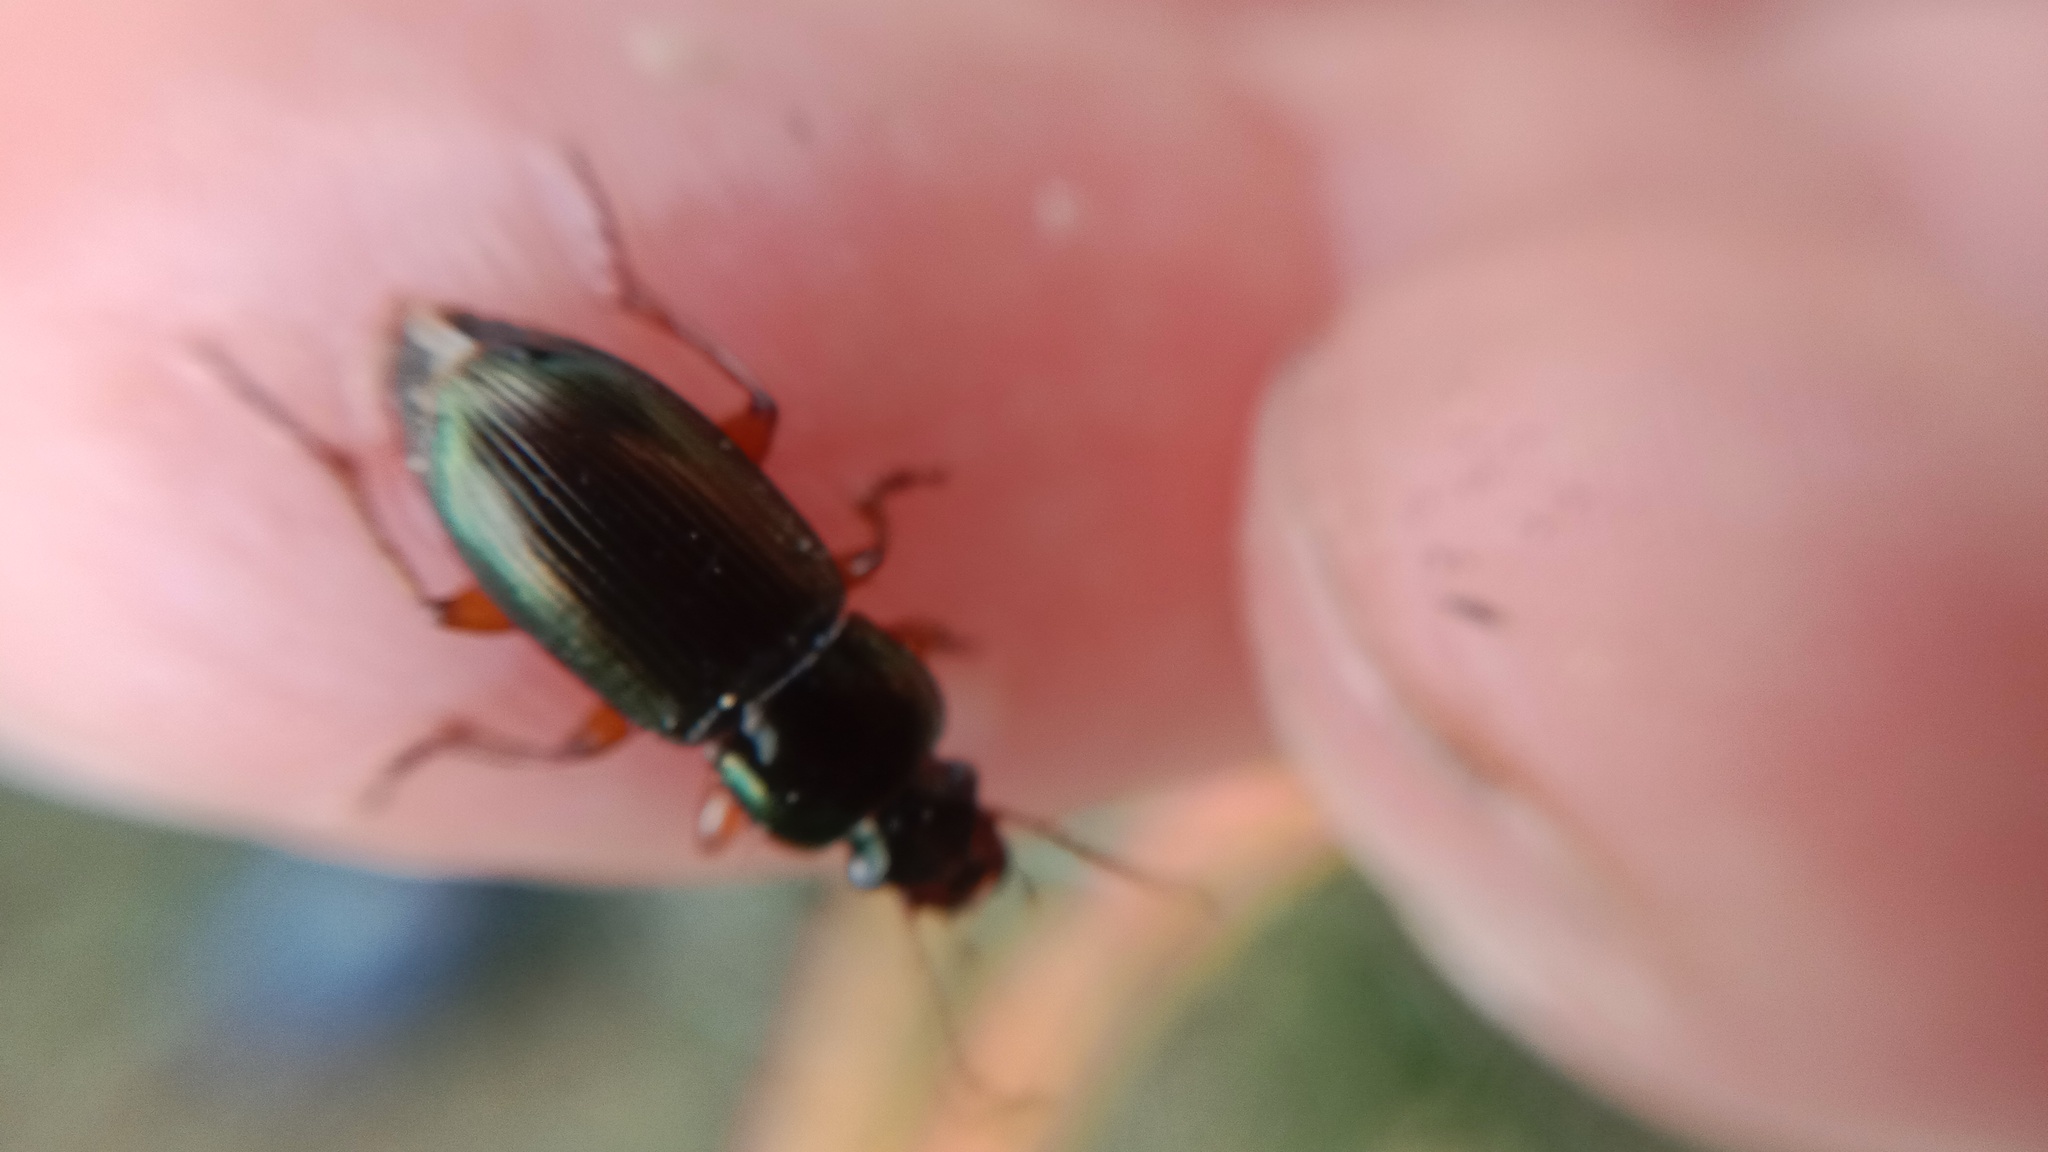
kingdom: Animalia
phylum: Arthropoda
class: Insecta
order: Coleoptera
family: Carabidae
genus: Harpalus
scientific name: Harpalus affinis
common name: Polychrome harp ground beetle
